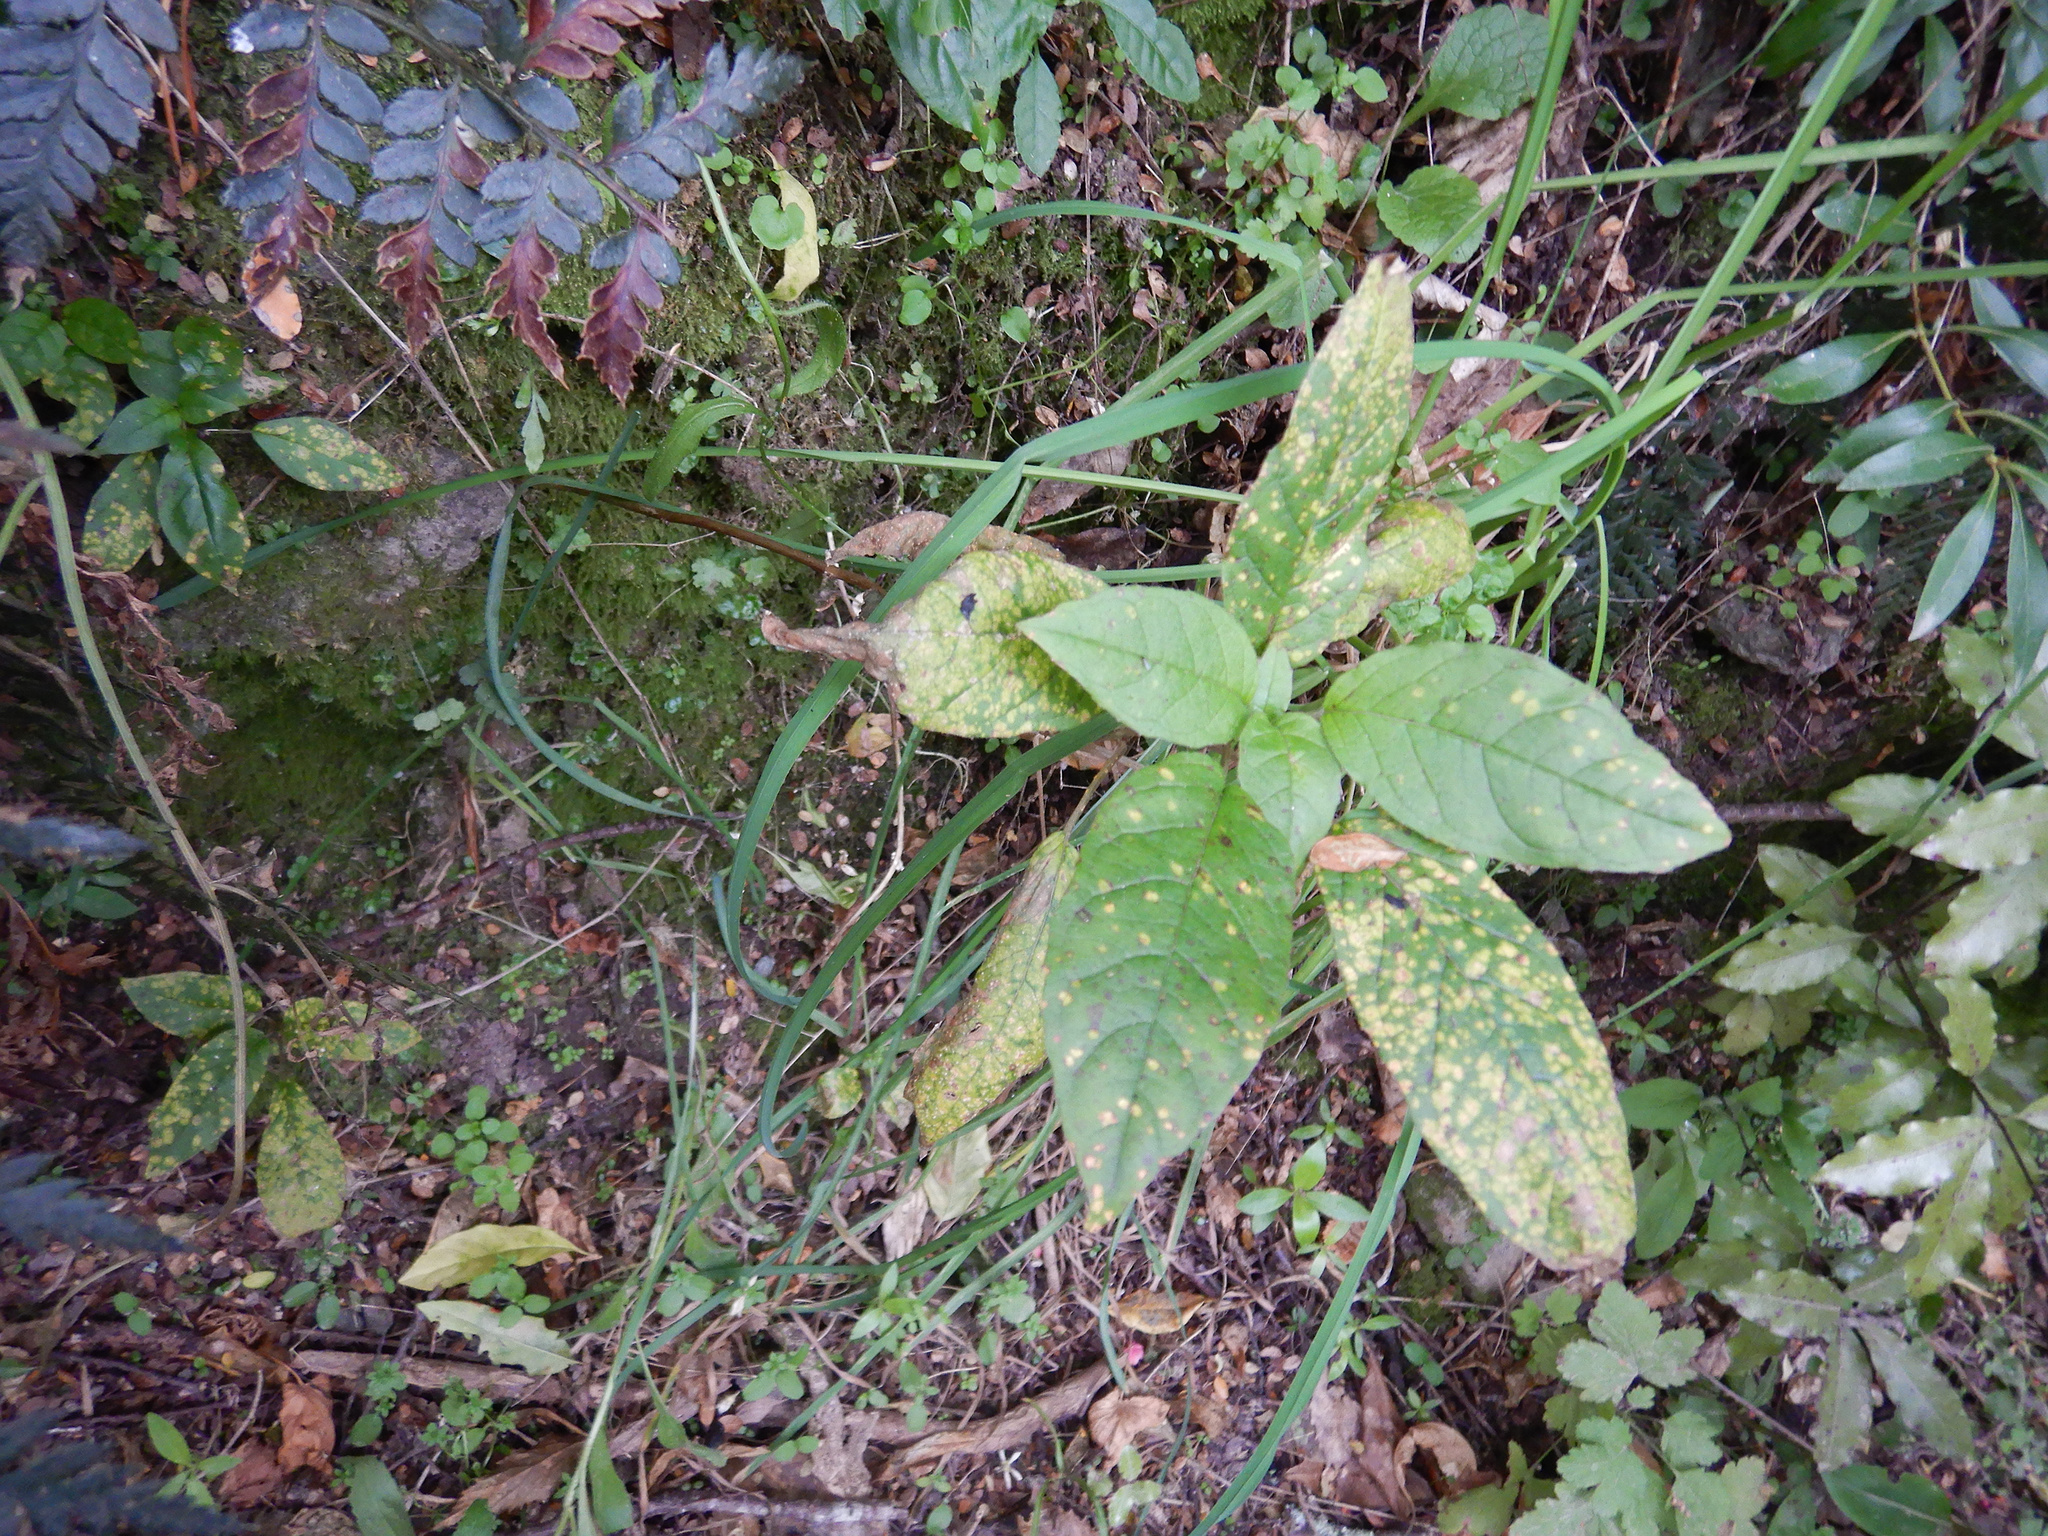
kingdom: Plantae
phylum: Tracheophyta
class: Magnoliopsida
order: Myrtales
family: Onagraceae
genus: Fuchsia
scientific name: Fuchsia excorticata
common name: Tree fuchsia
